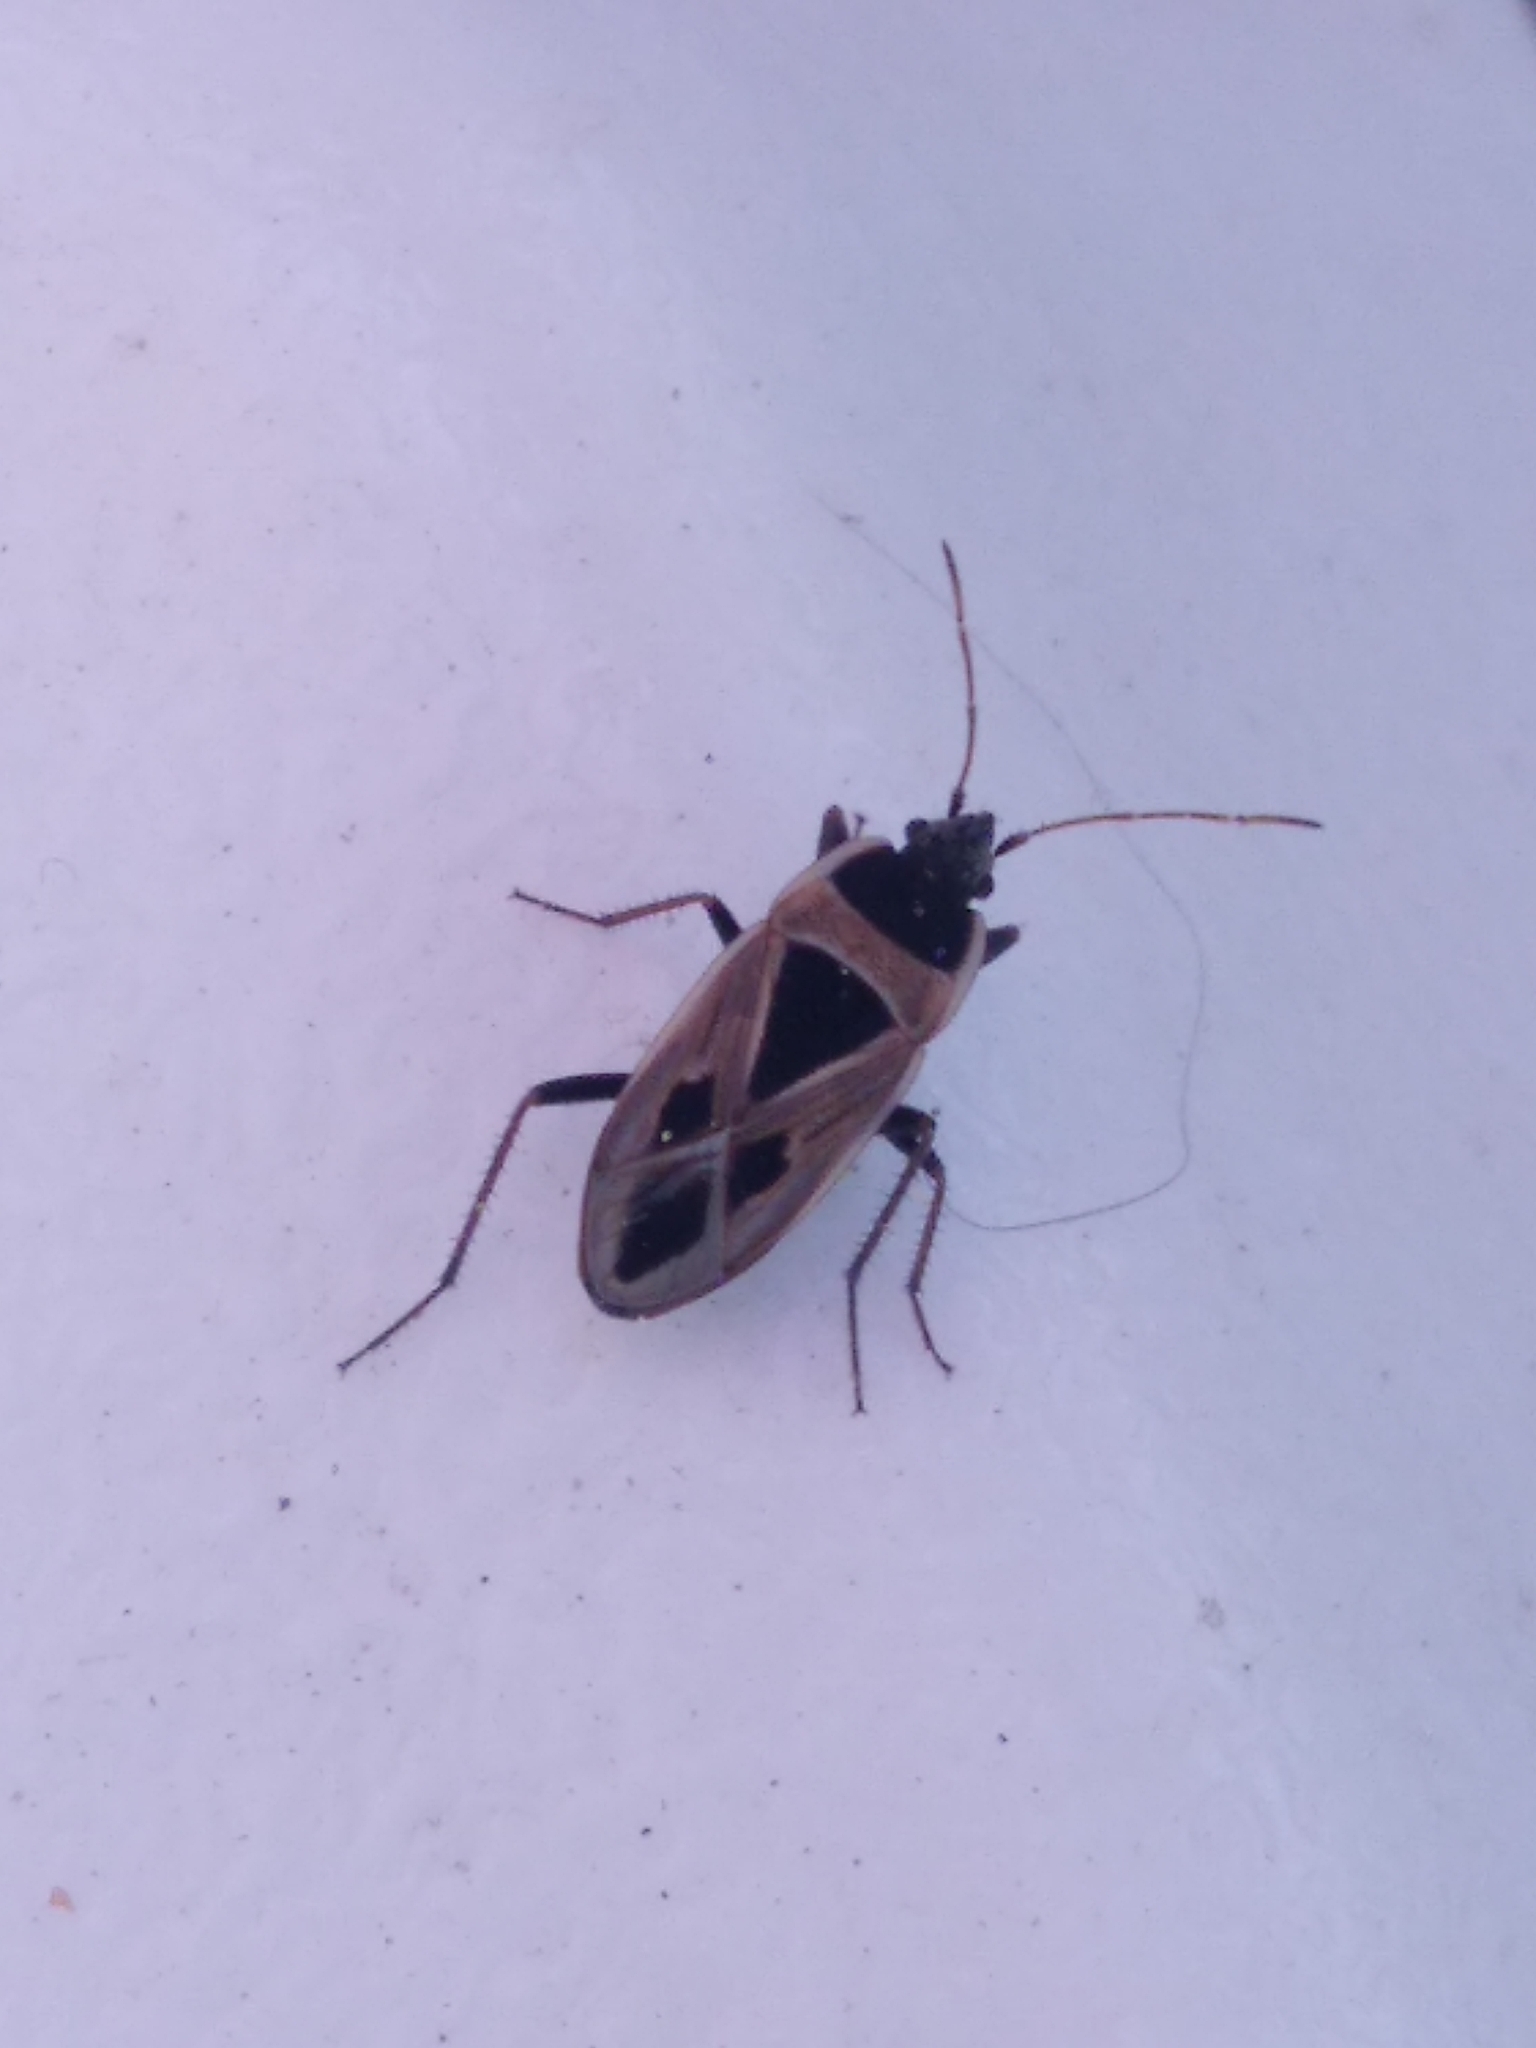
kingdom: Animalia
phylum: Arthropoda
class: Insecta
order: Hemiptera
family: Rhyparochromidae
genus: Xanthochilus
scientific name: Xanthochilus saturnius
